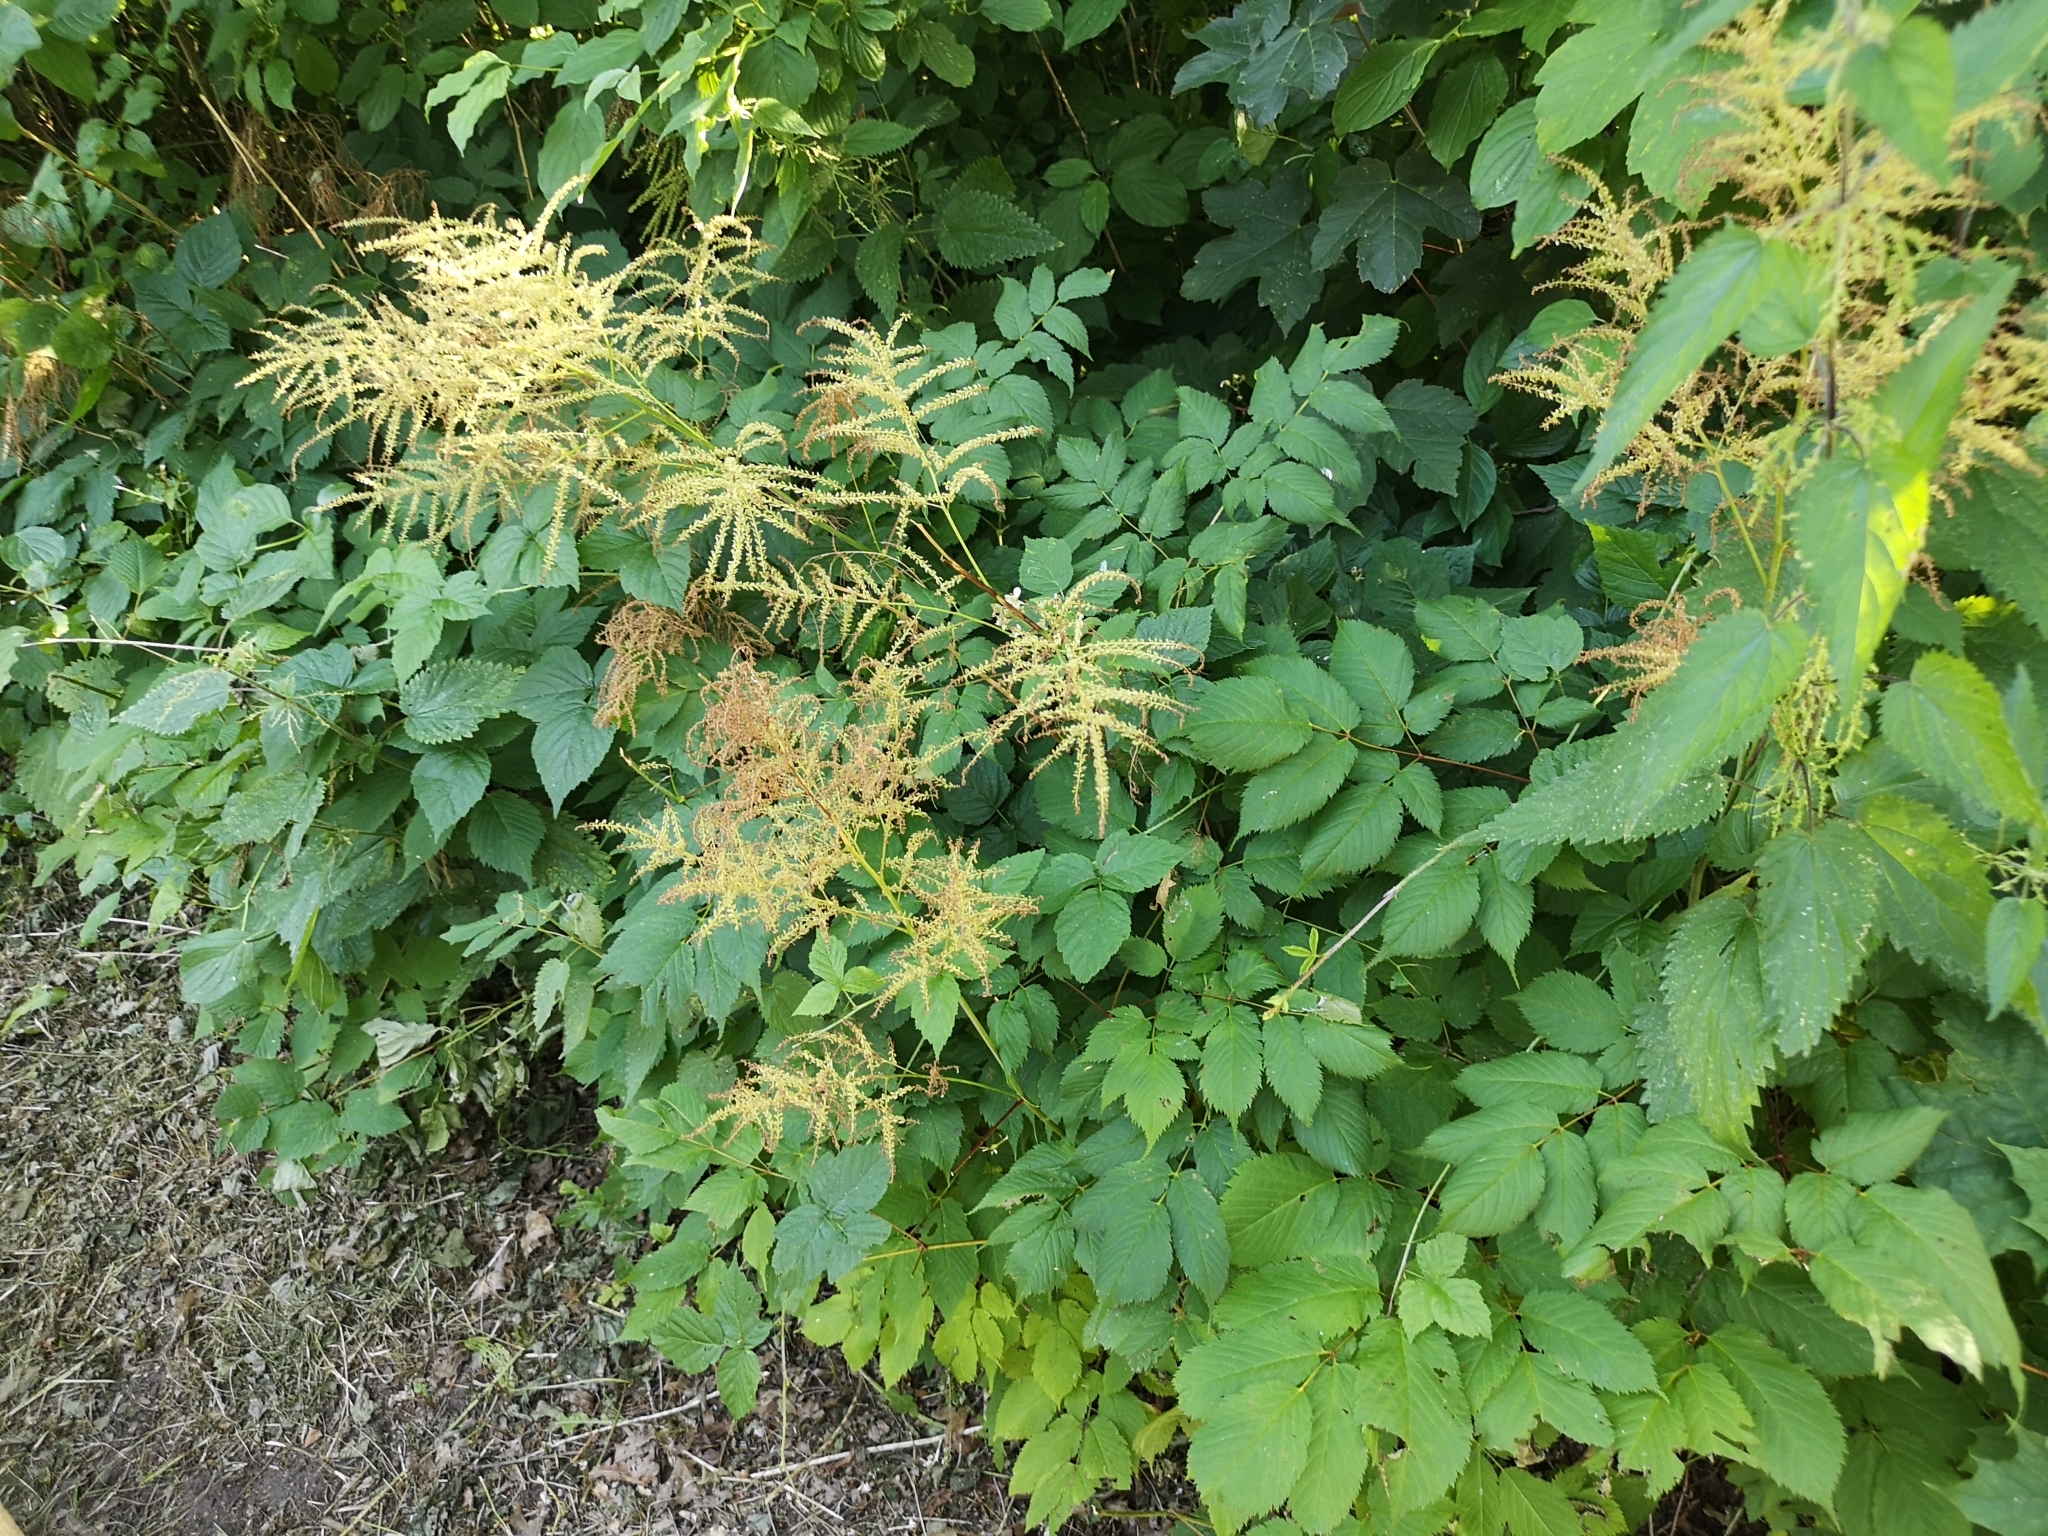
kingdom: Plantae
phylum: Tracheophyta
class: Magnoliopsida
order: Rosales
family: Rosaceae
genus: Aruncus
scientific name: Aruncus dioicus
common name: Buck's-beard
